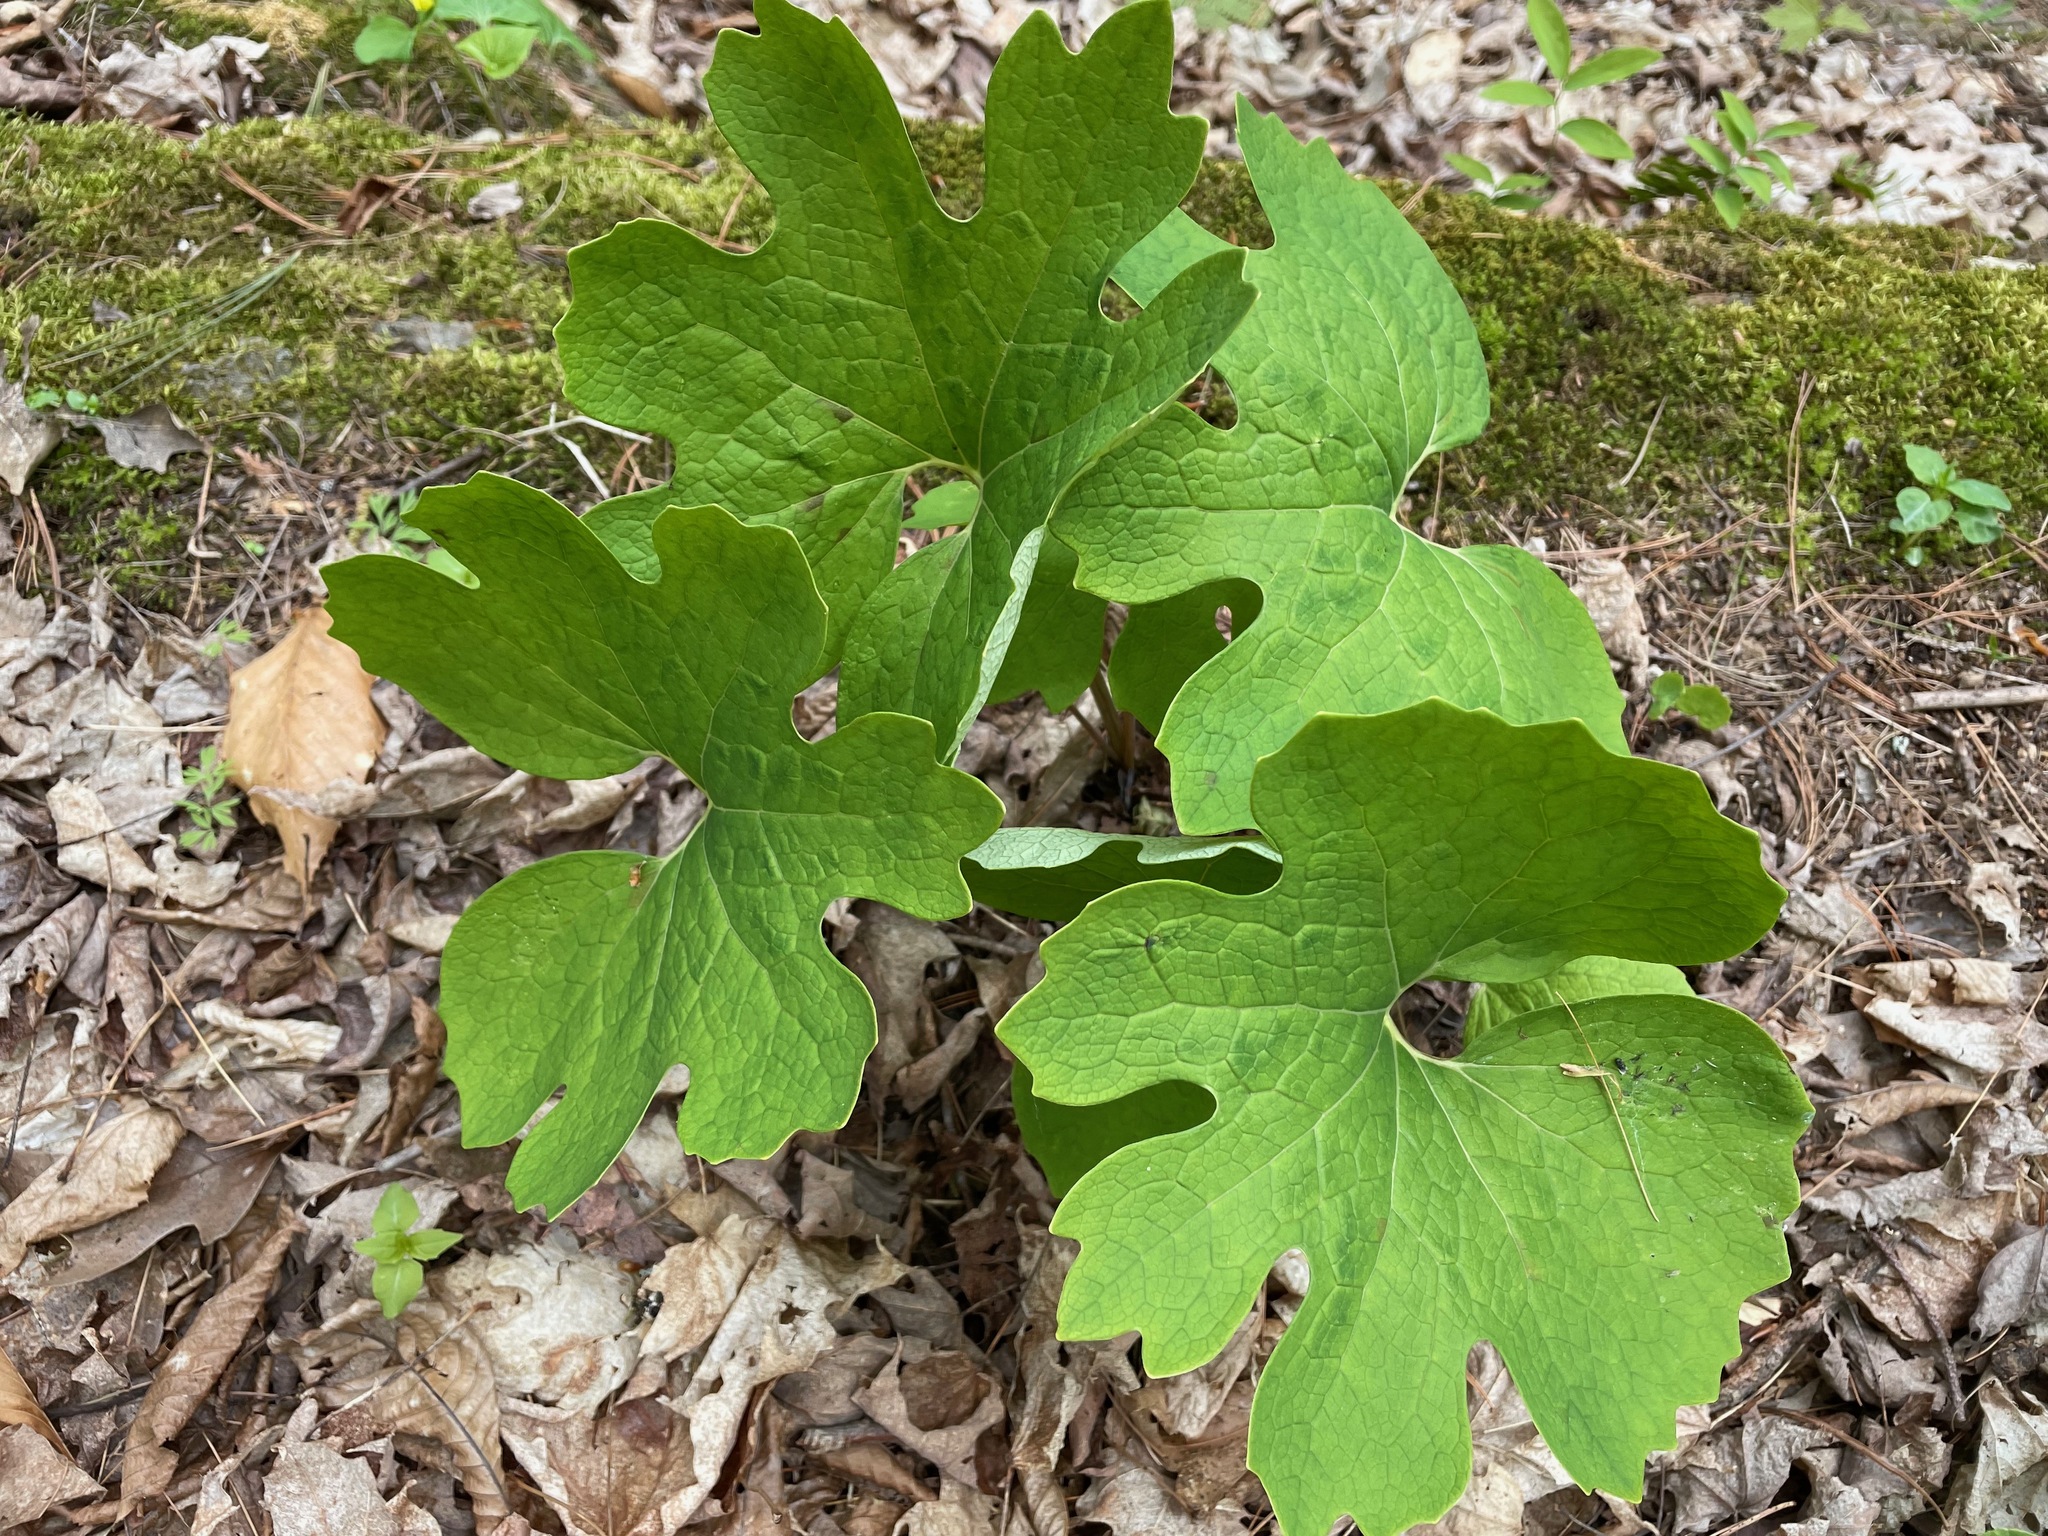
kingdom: Plantae
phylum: Tracheophyta
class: Magnoliopsida
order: Ranunculales
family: Papaveraceae
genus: Sanguinaria
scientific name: Sanguinaria canadensis
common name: Bloodroot
